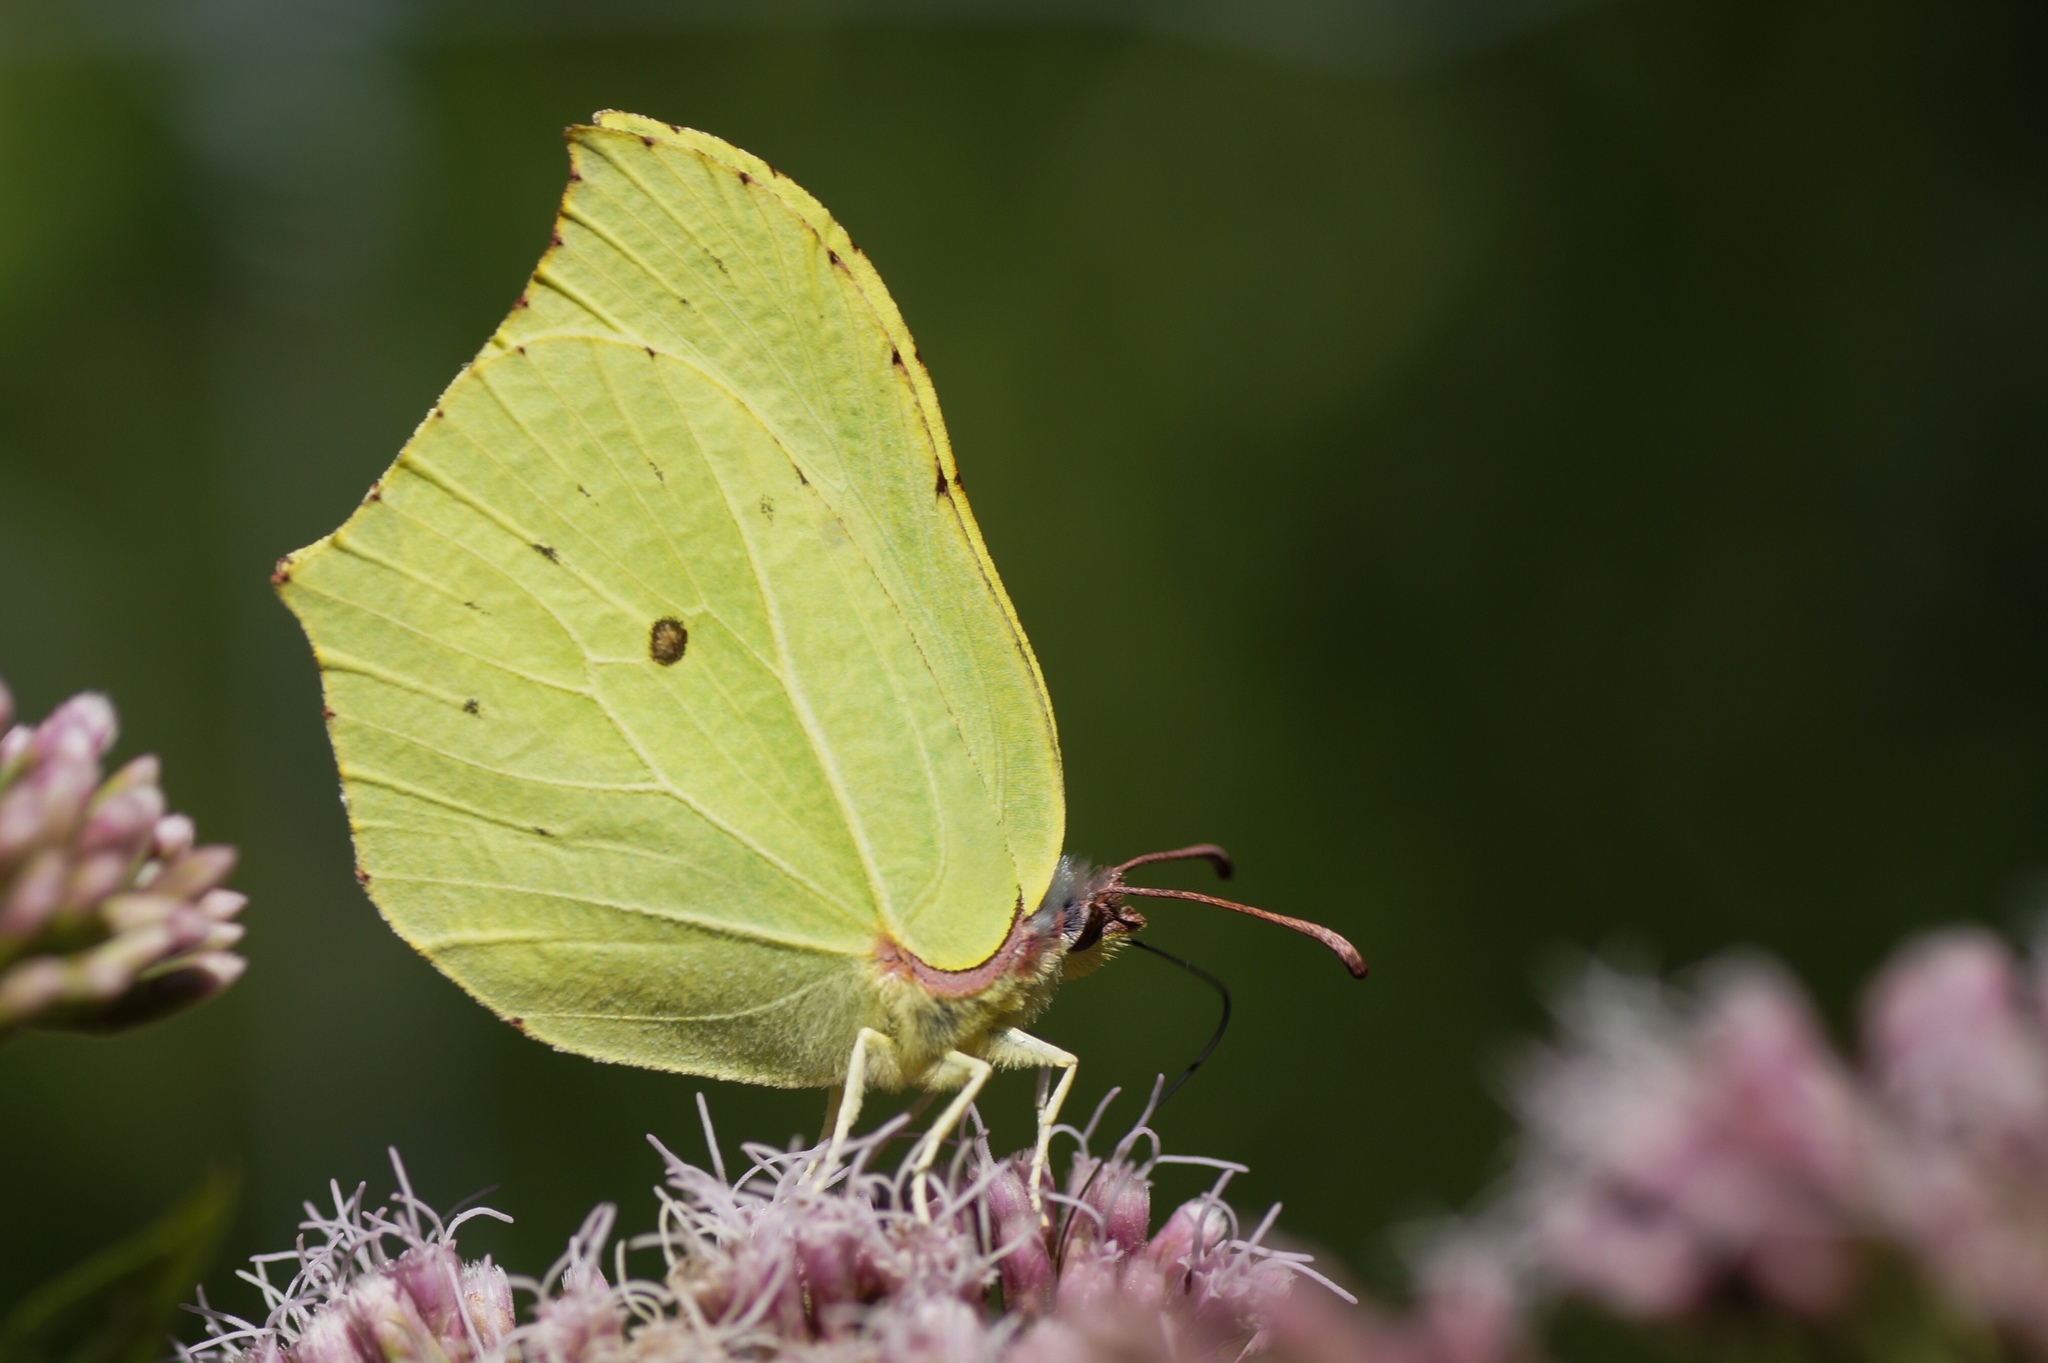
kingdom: Animalia
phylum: Arthropoda
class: Insecta
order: Lepidoptera
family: Pieridae
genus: Gonepteryx
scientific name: Gonepteryx rhamni
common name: Brimstone
